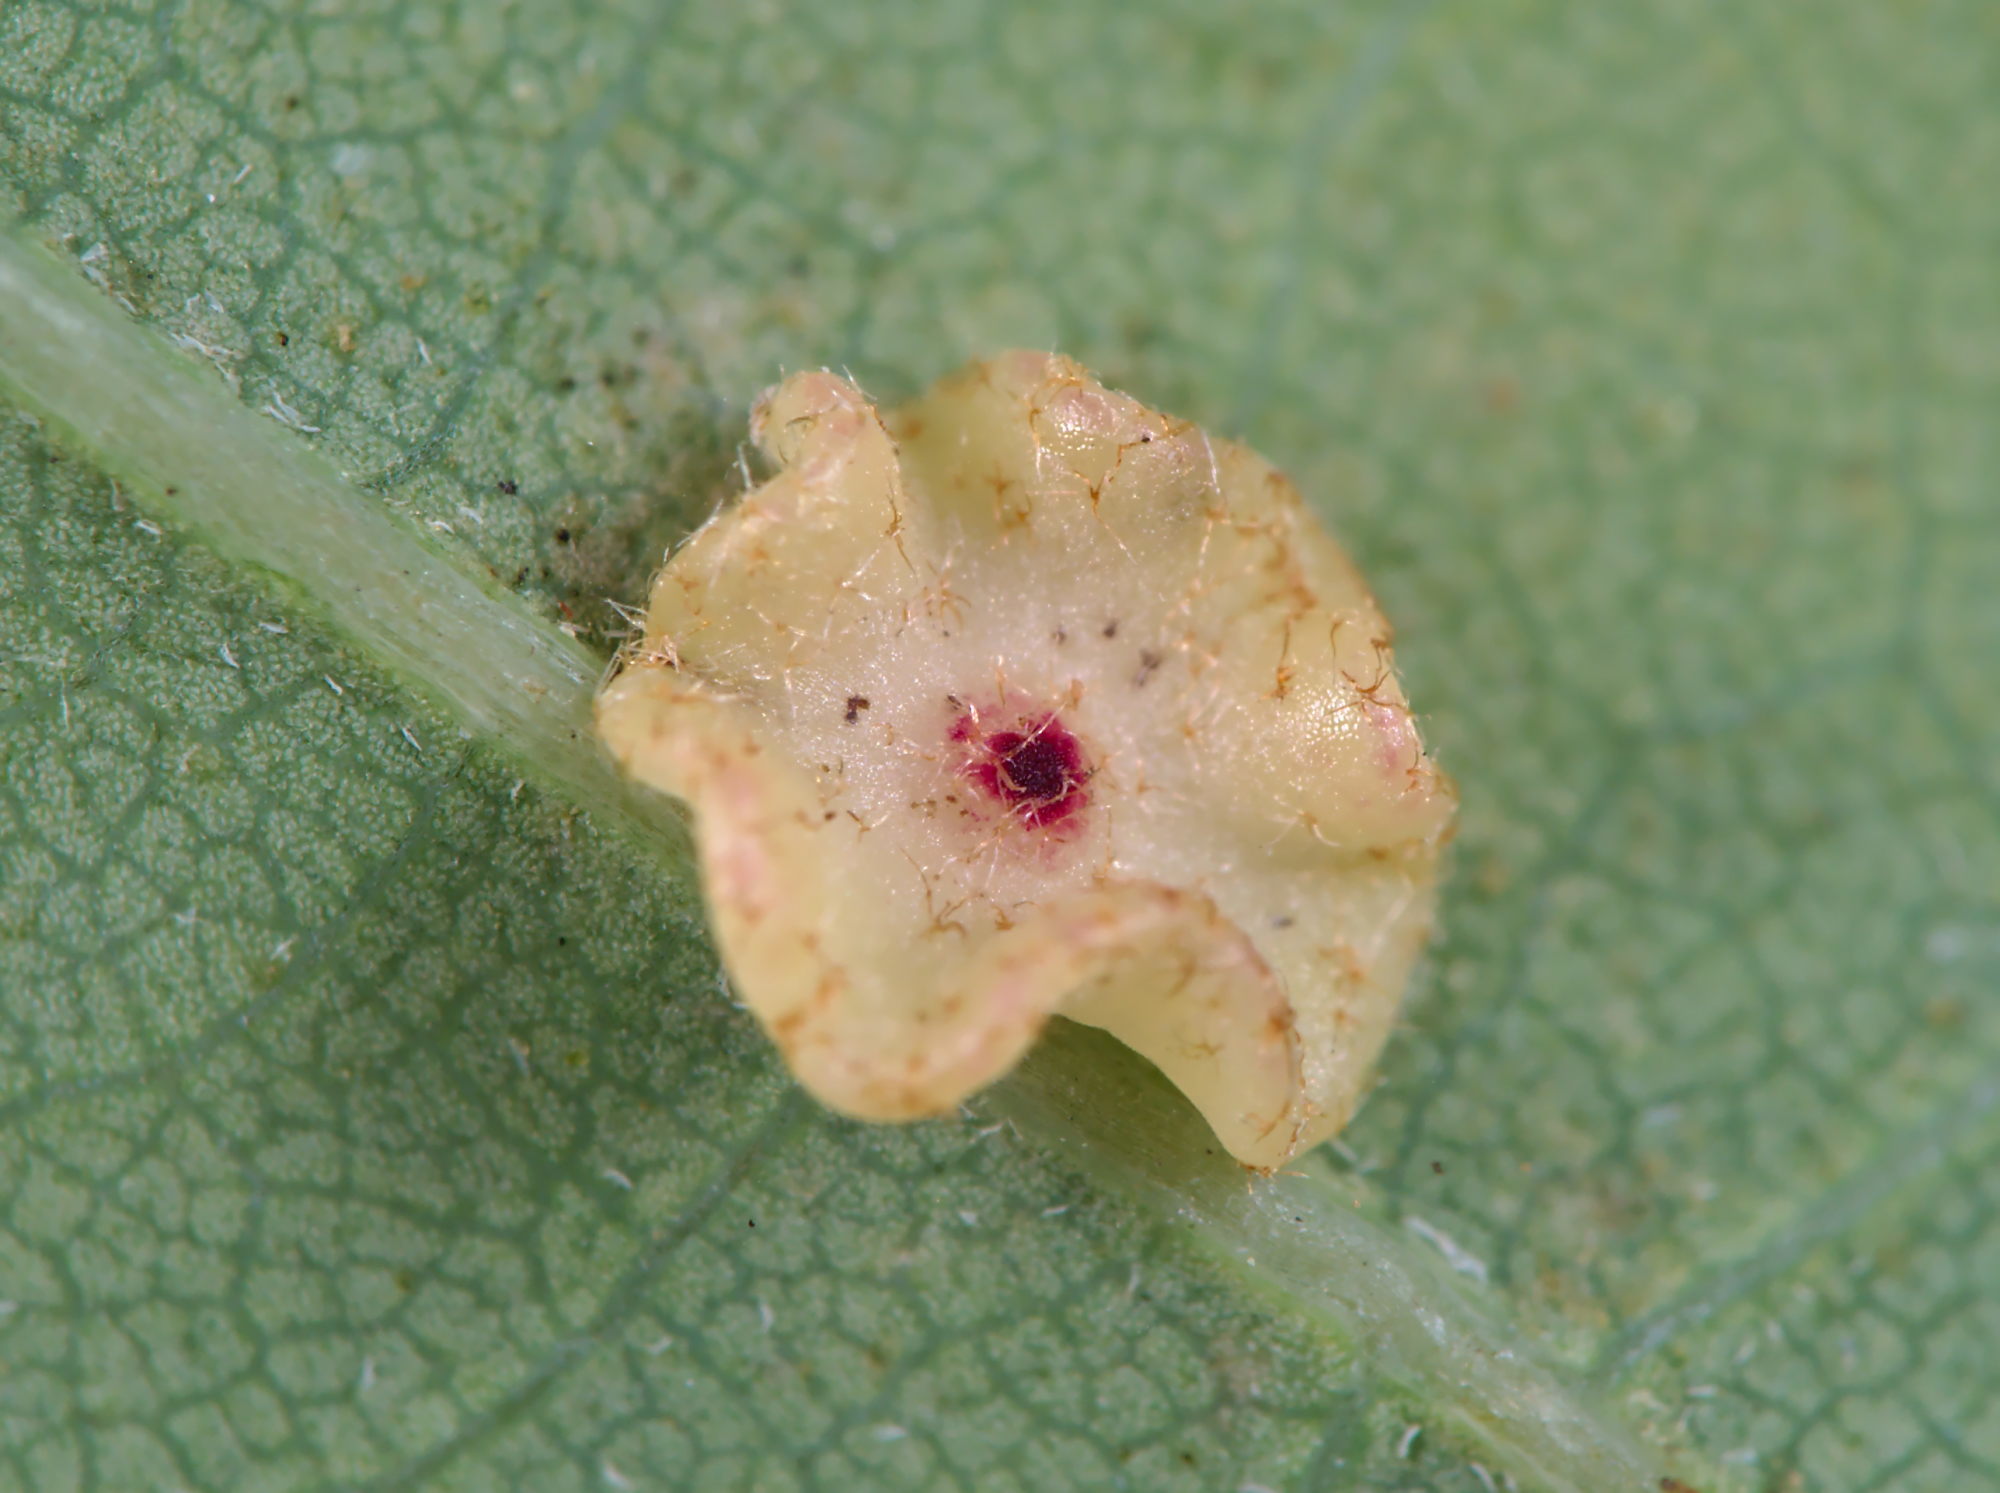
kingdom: Animalia
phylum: Arthropoda
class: Insecta
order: Hymenoptera
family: Cynipidae
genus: Neuroterus
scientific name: Neuroterus albipes
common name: Smooth spangle gall
